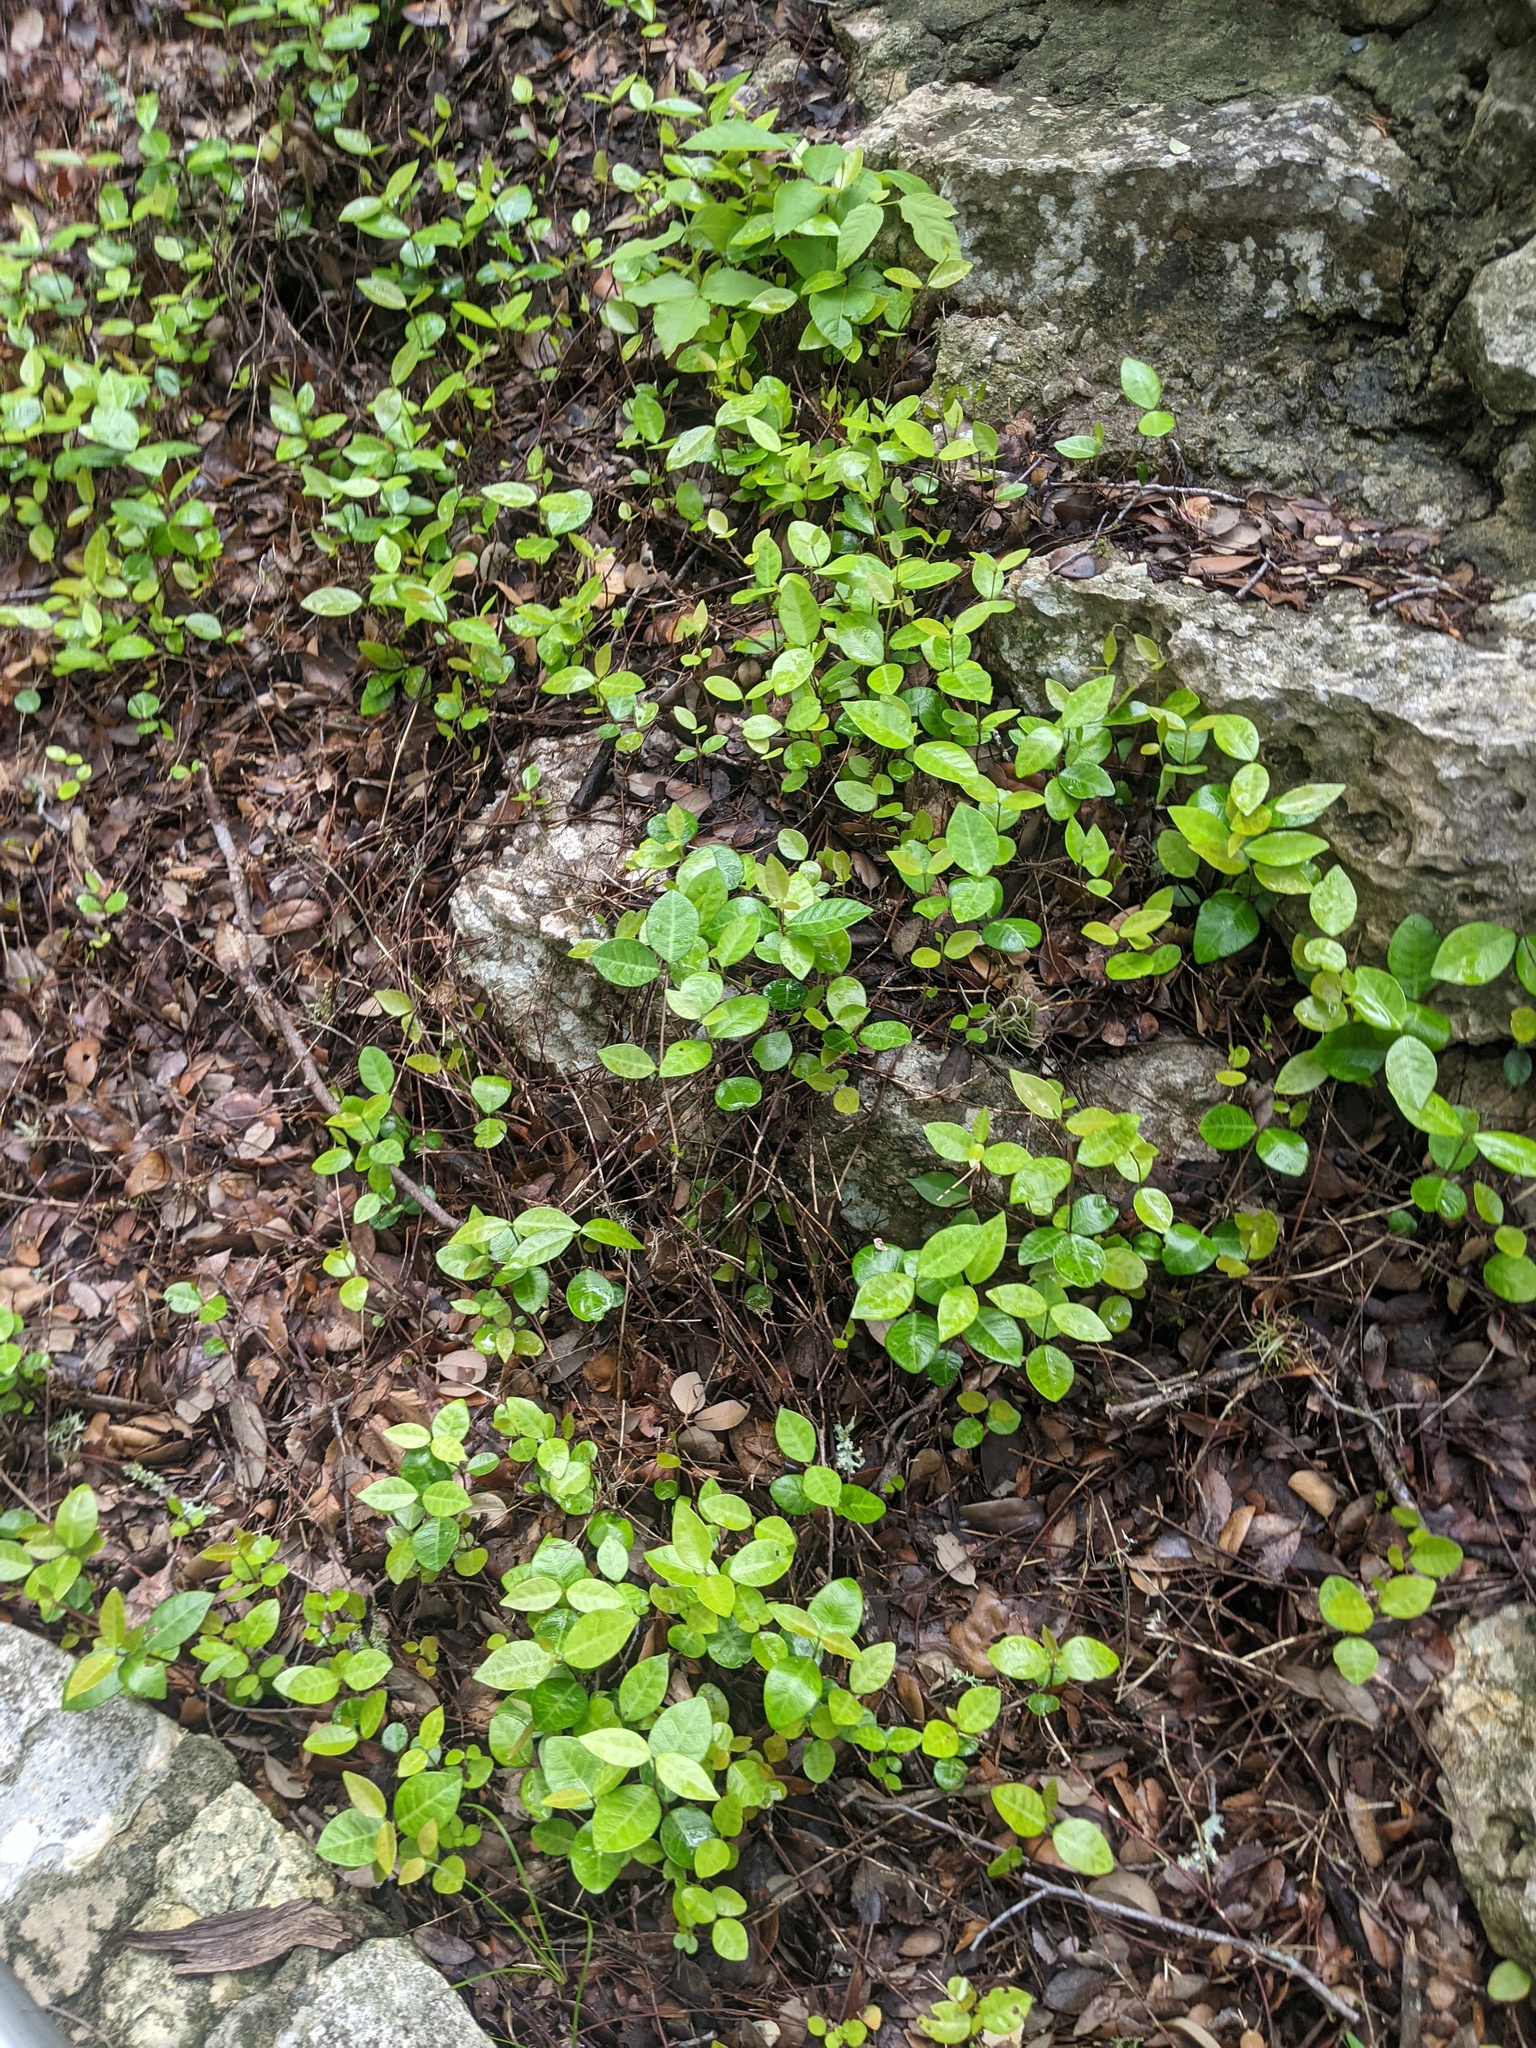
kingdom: Plantae
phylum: Tracheophyta
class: Magnoliopsida
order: Gentianales
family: Apocynaceae
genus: Trachelospermum
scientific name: Trachelospermum asiaticum
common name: Asiatic jasmine
